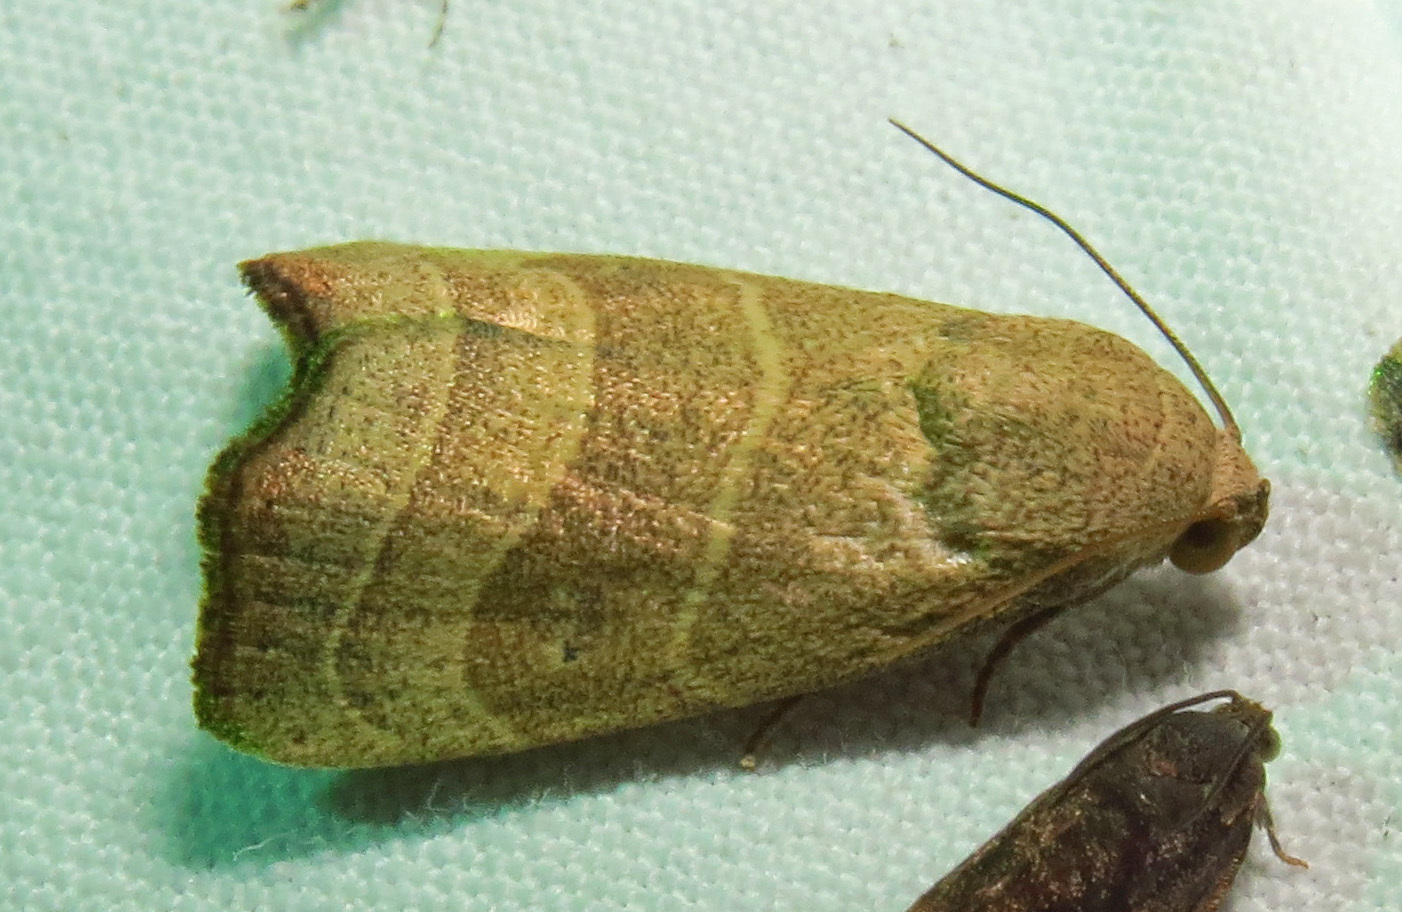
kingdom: Animalia
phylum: Arthropoda
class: Insecta
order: Lepidoptera
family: Noctuidae
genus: Bagisara
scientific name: Bagisara repanda
